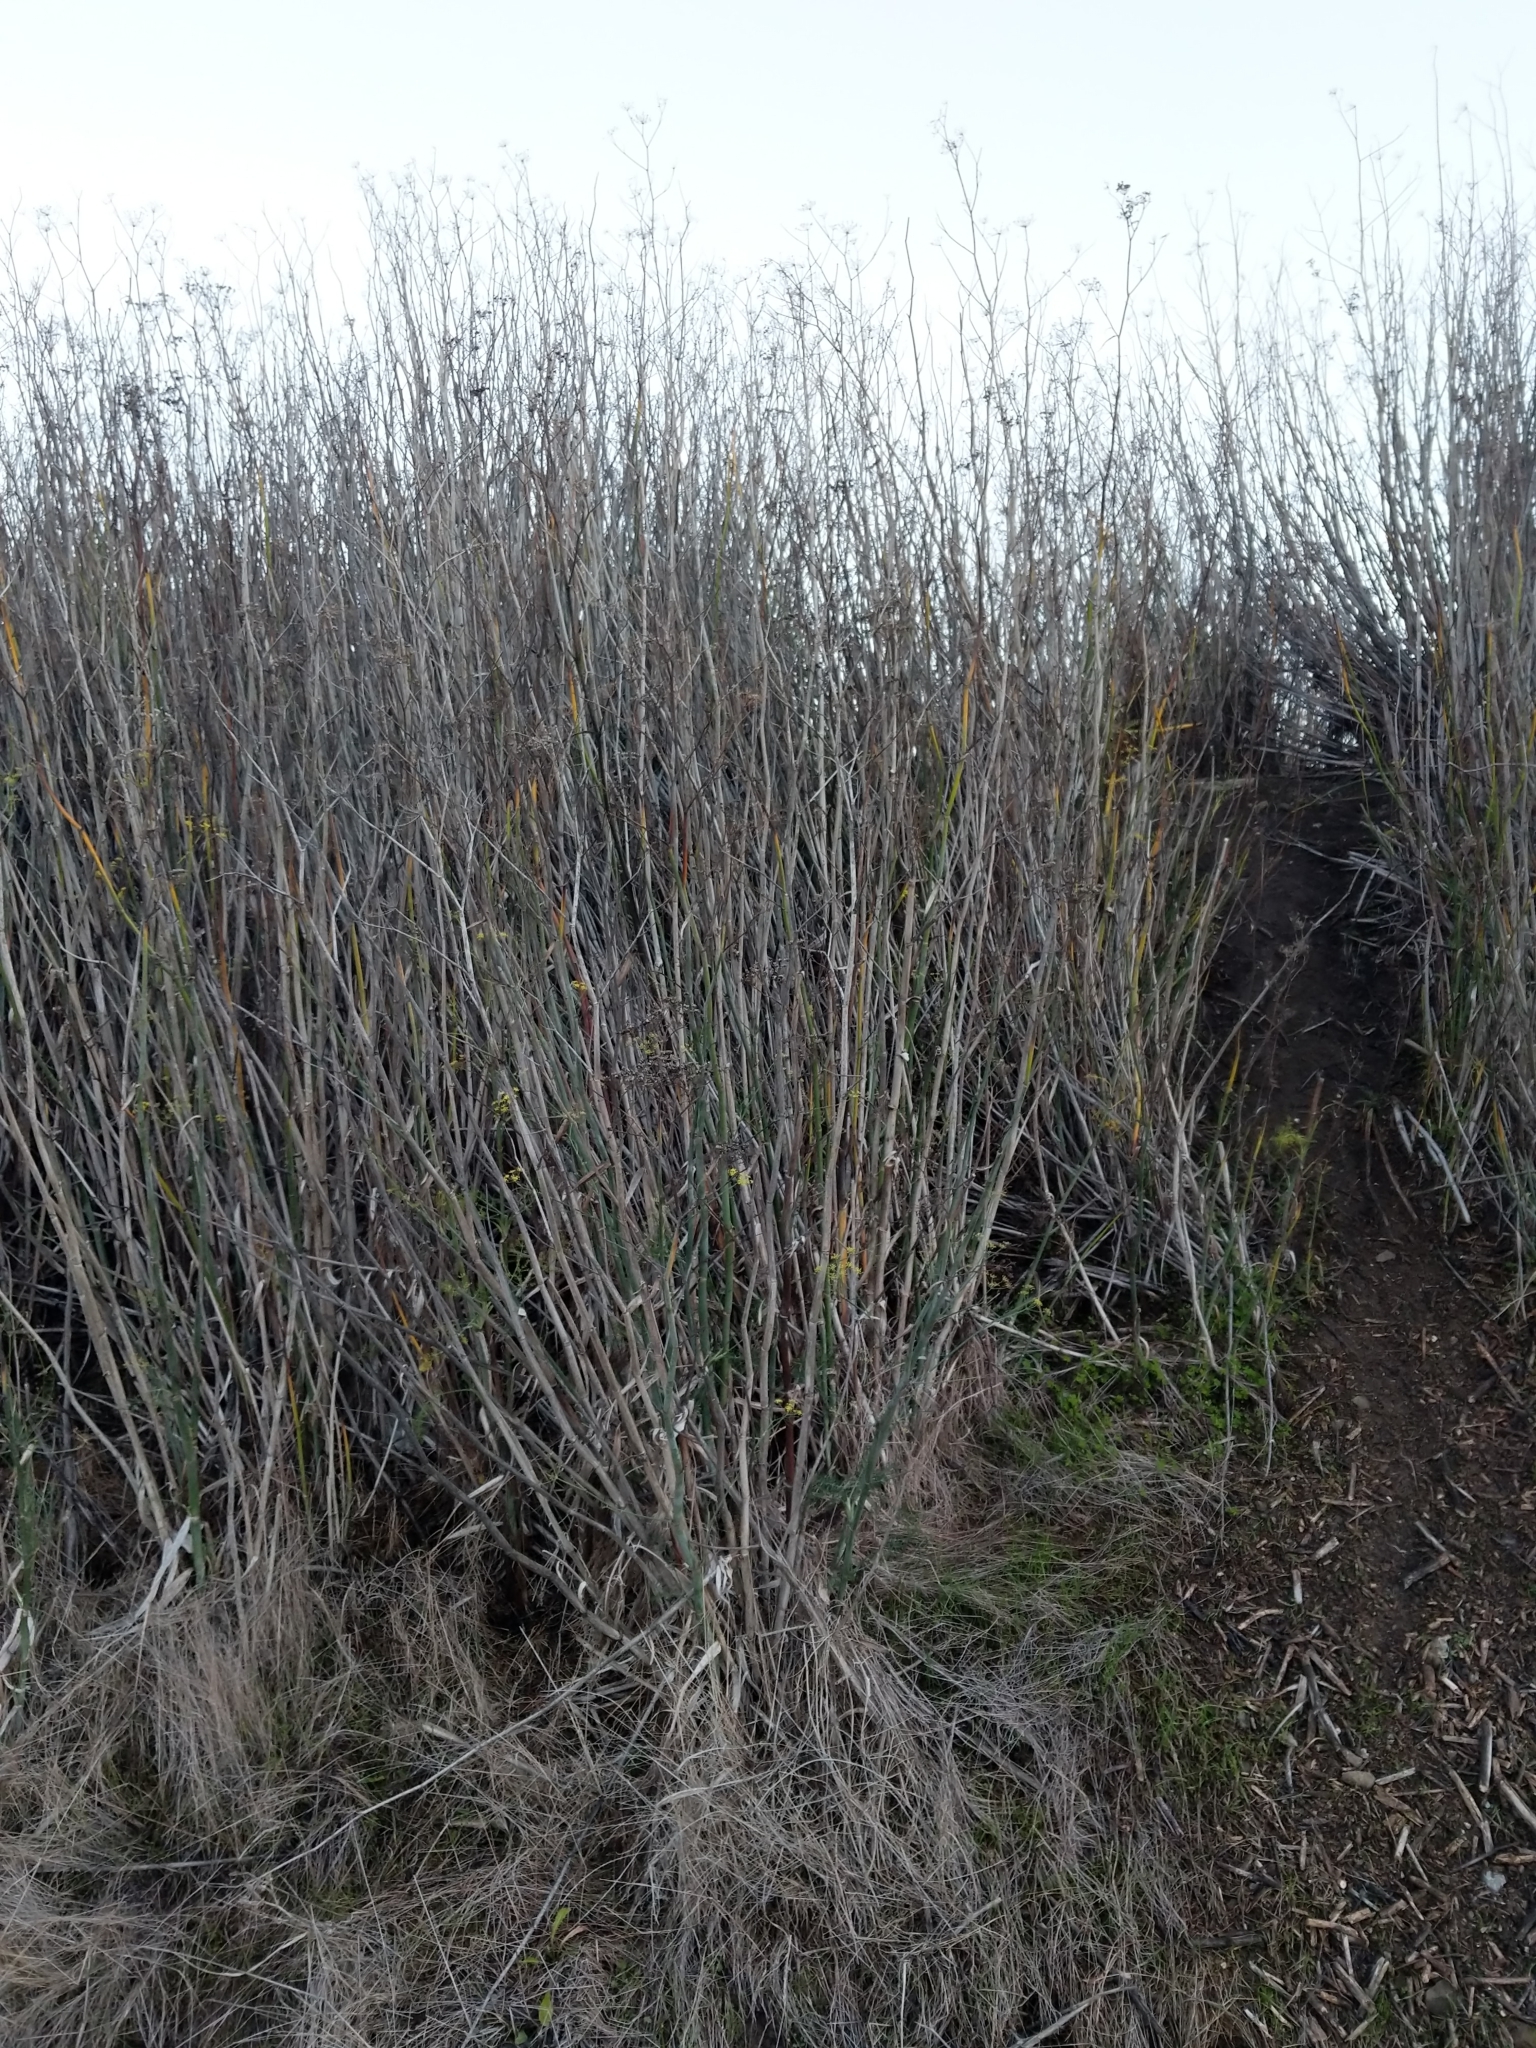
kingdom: Plantae
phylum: Tracheophyta
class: Magnoliopsida
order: Apiales
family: Apiaceae
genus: Foeniculum
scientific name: Foeniculum vulgare
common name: Fennel
